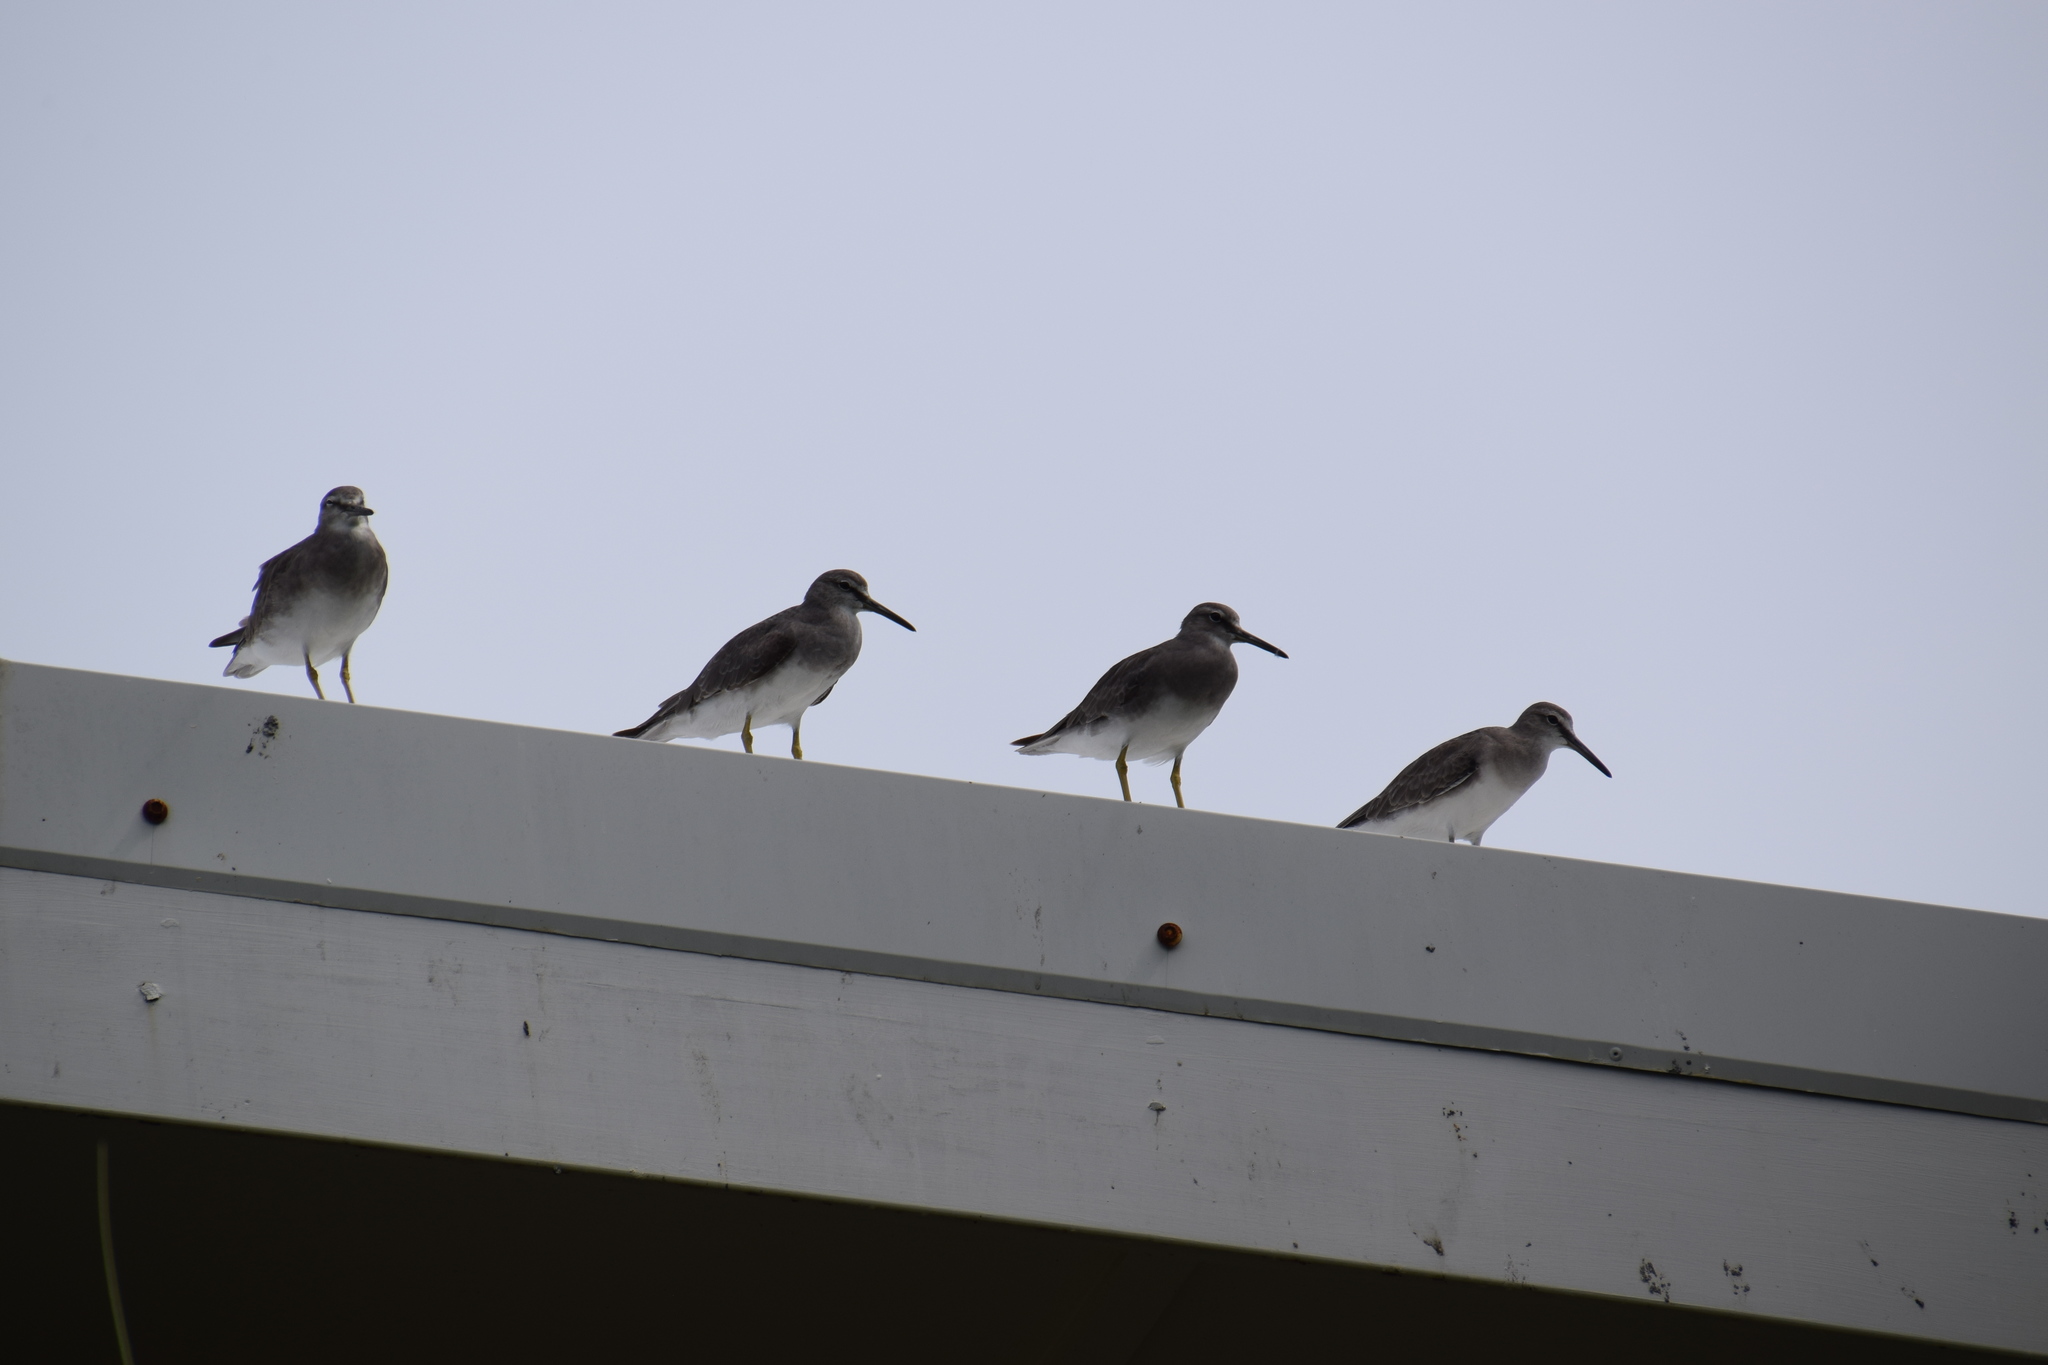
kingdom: Animalia
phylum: Chordata
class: Aves
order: Charadriiformes
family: Scolopacidae
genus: Tringa
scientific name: Tringa brevipes
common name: Grey-tailed tattler
